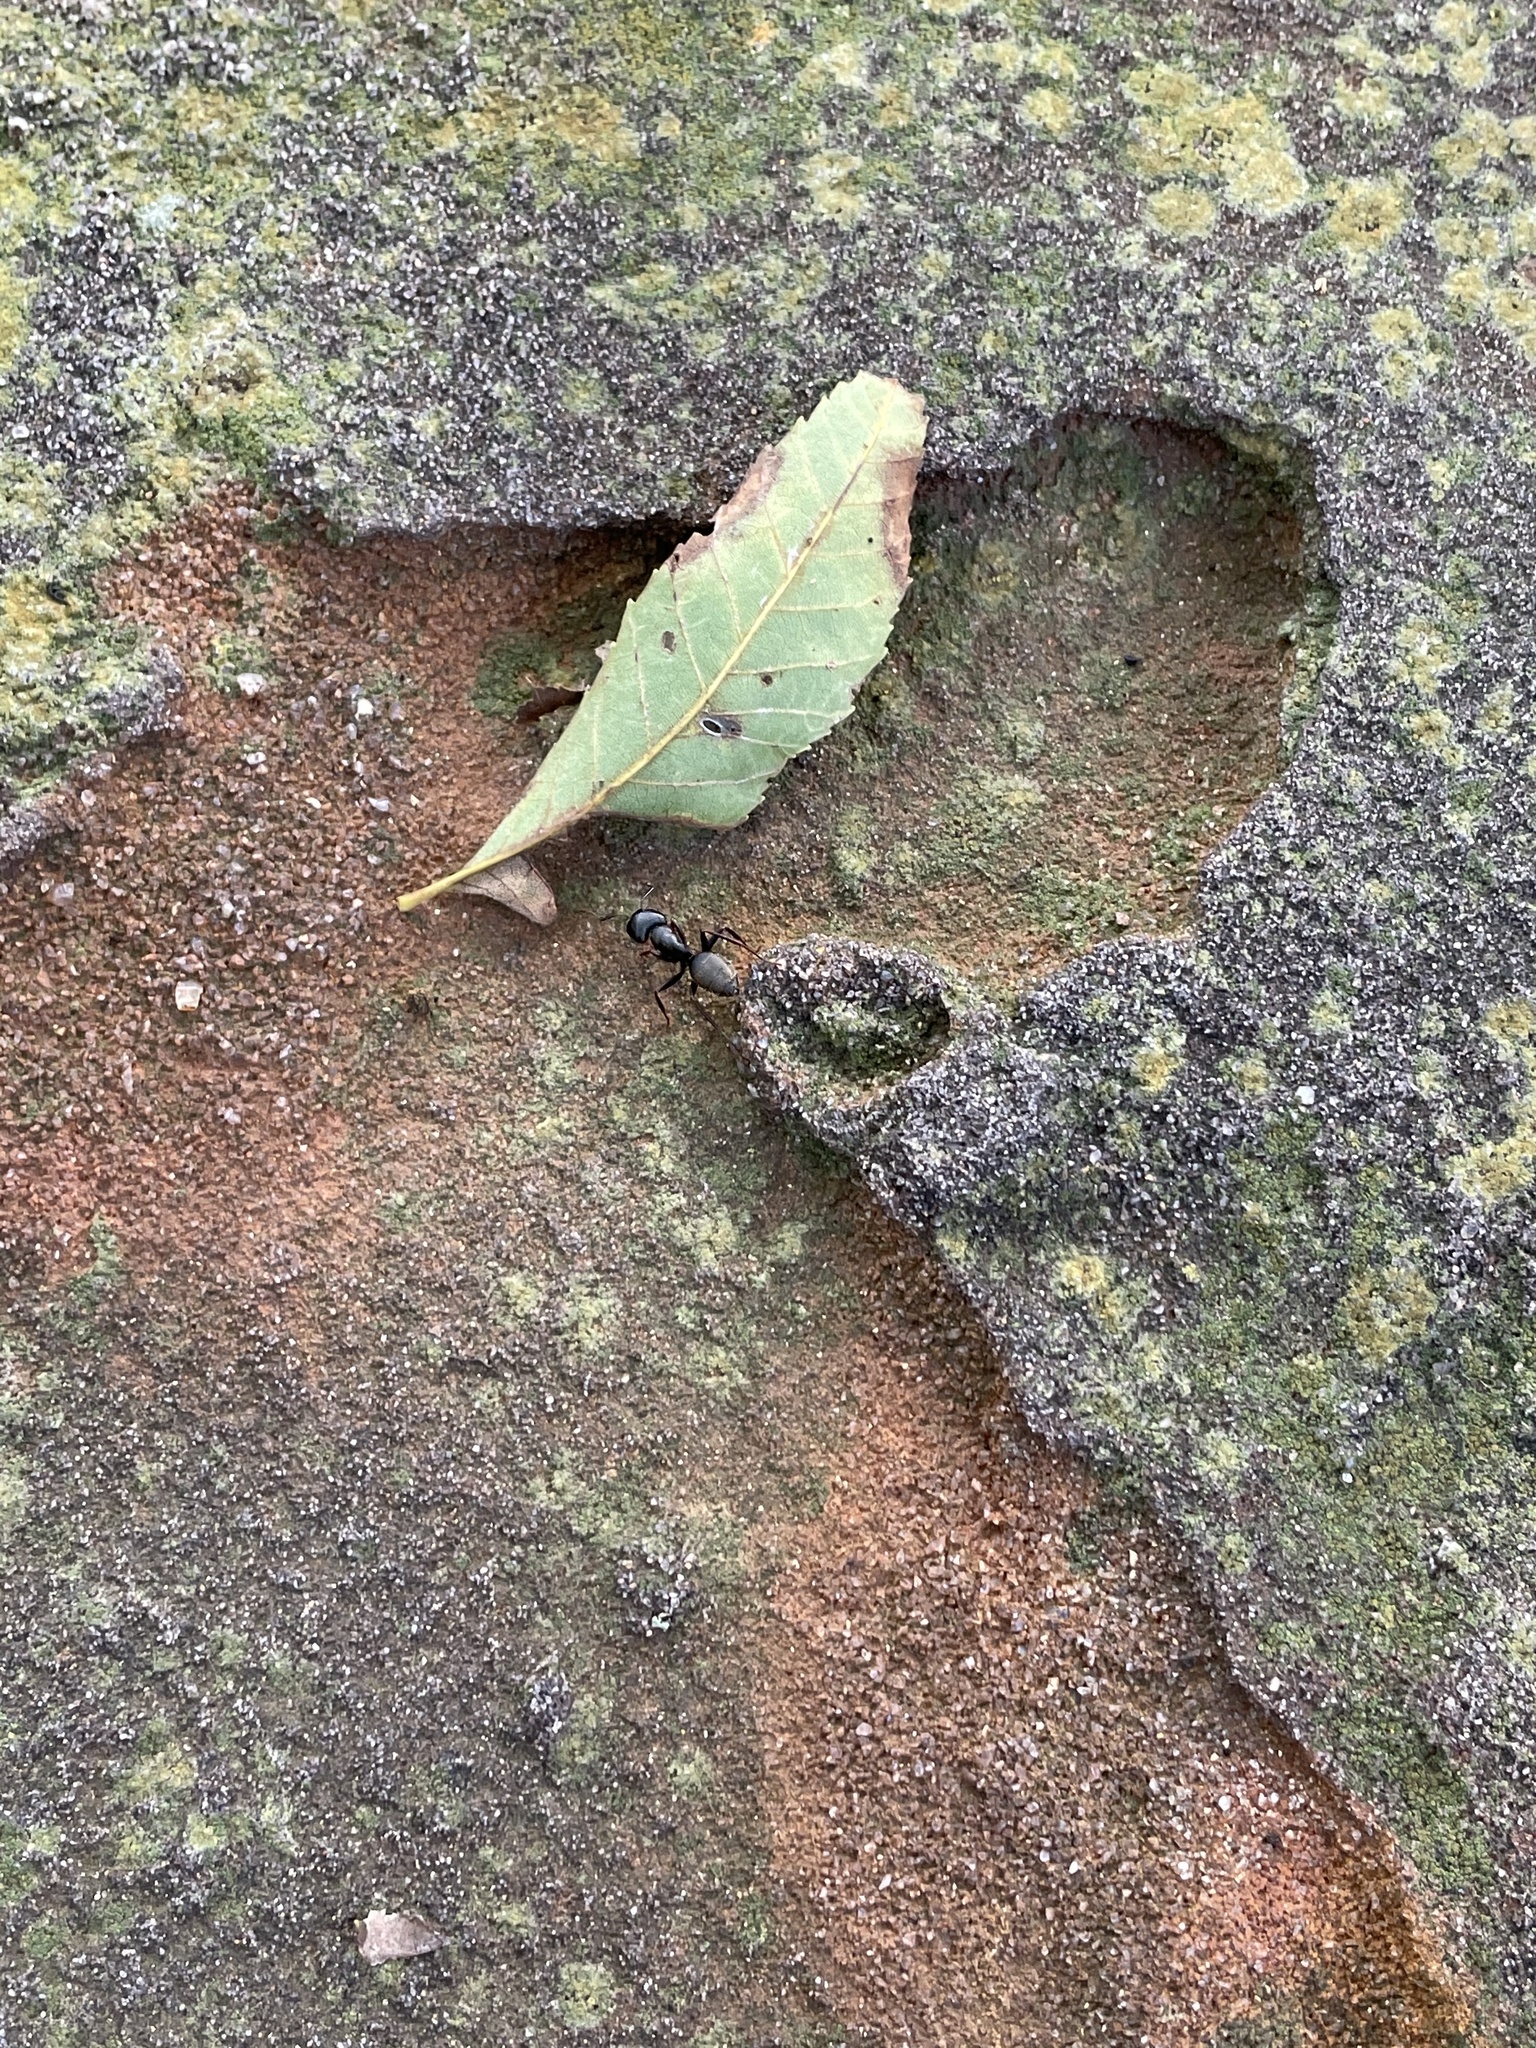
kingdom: Animalia
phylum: Arthropoda
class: Insecta
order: Hymenoptera
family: Formicidae
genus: Camponotus
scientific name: Camponotus pennsylvanicus
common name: Black carpenter ant
